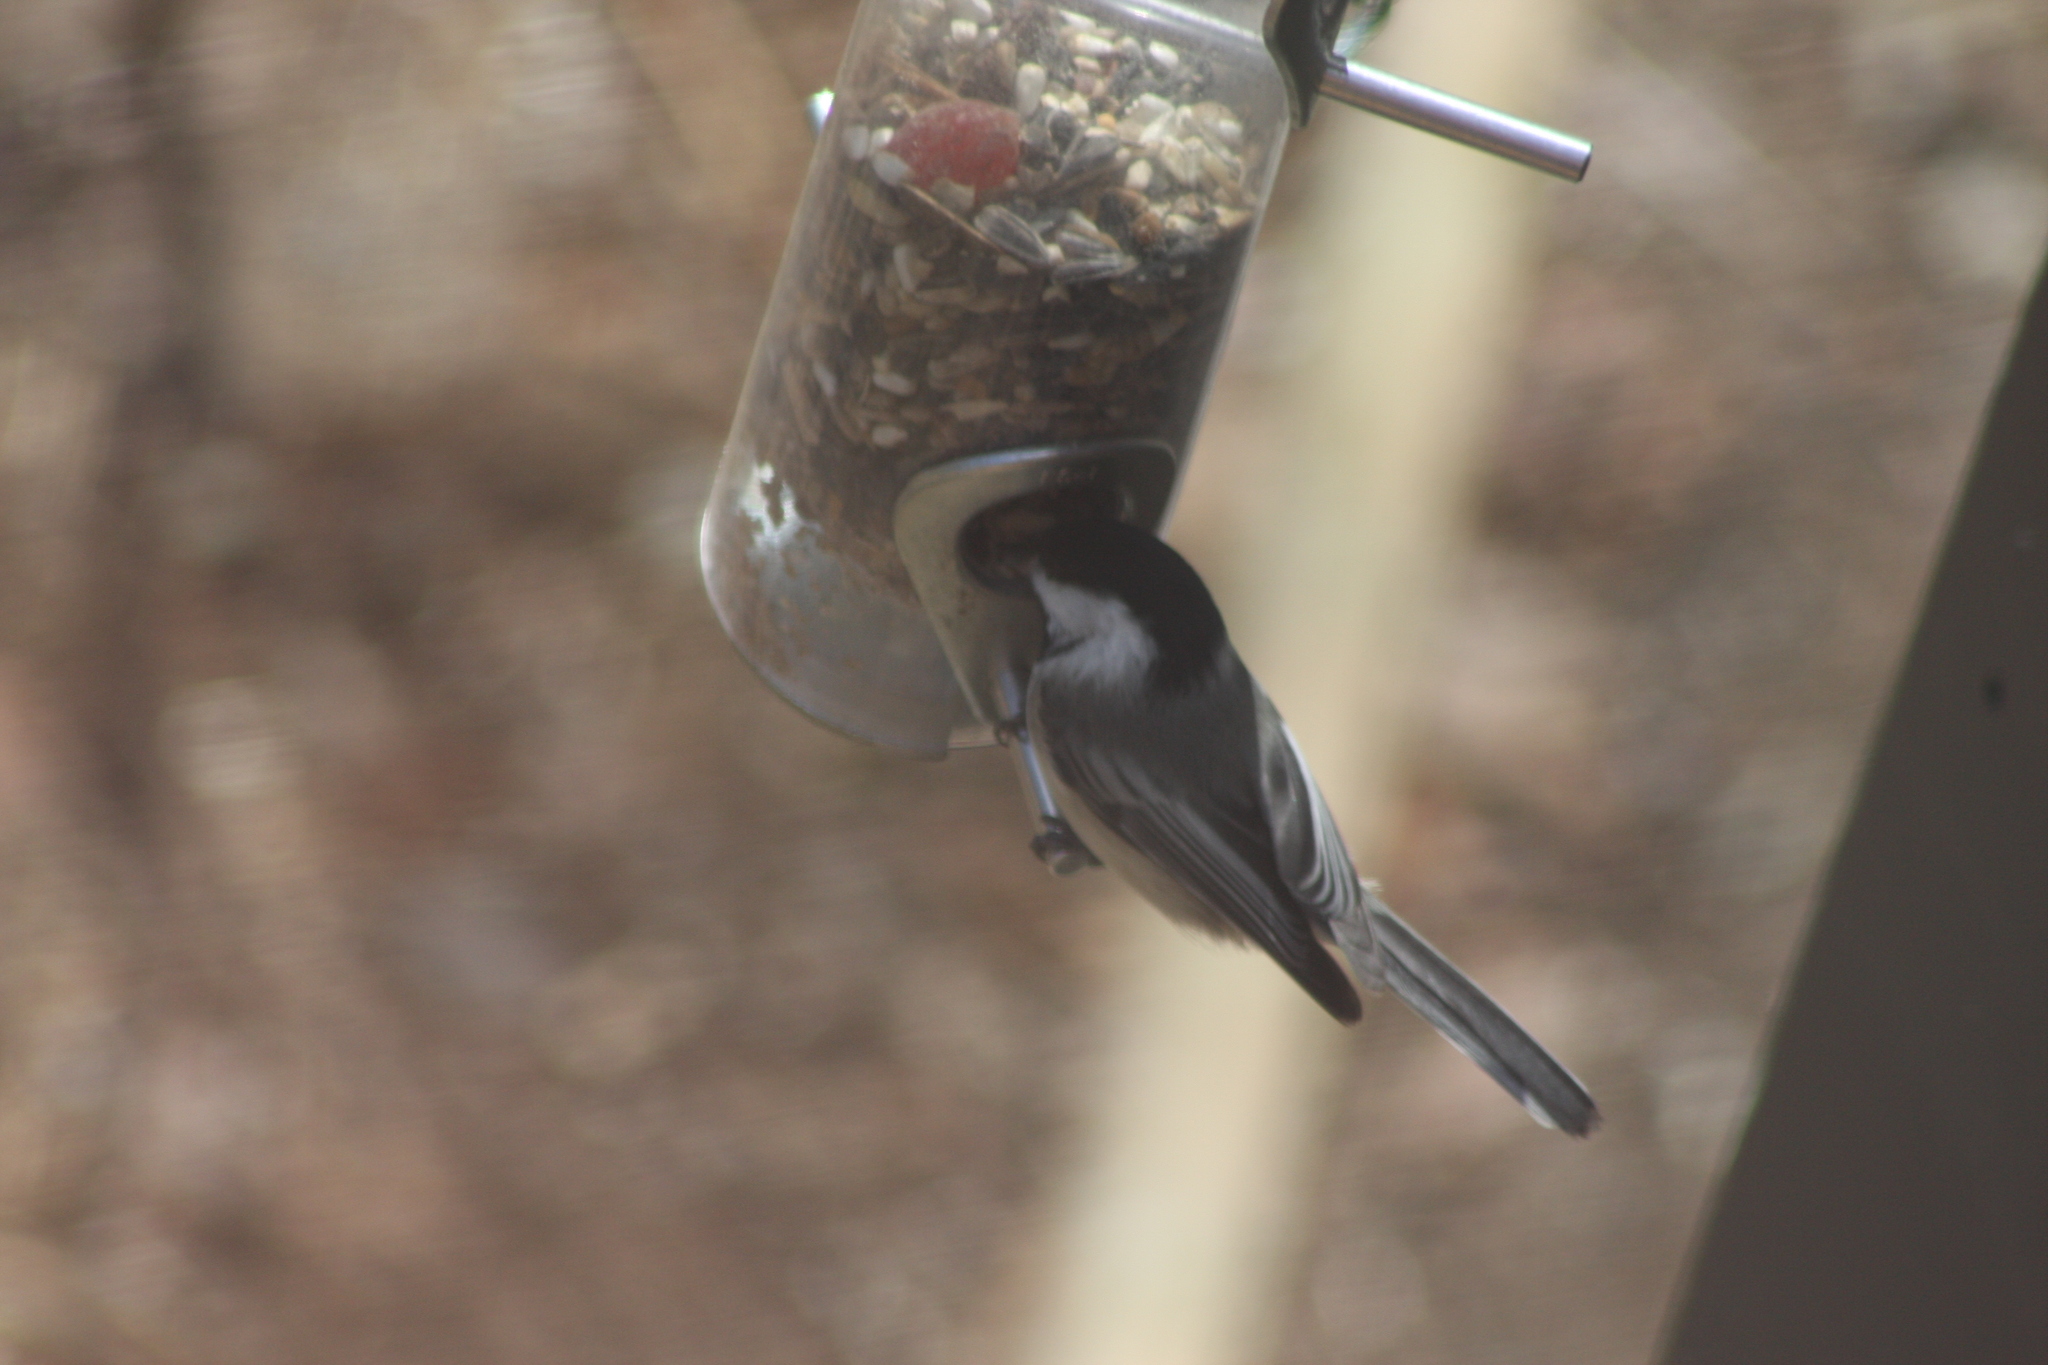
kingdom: Animalia
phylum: Chordata
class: Aves
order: Passeriformes
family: Paridae
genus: Poecile
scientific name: Poecile atricapillus
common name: Black-capped chickadee
